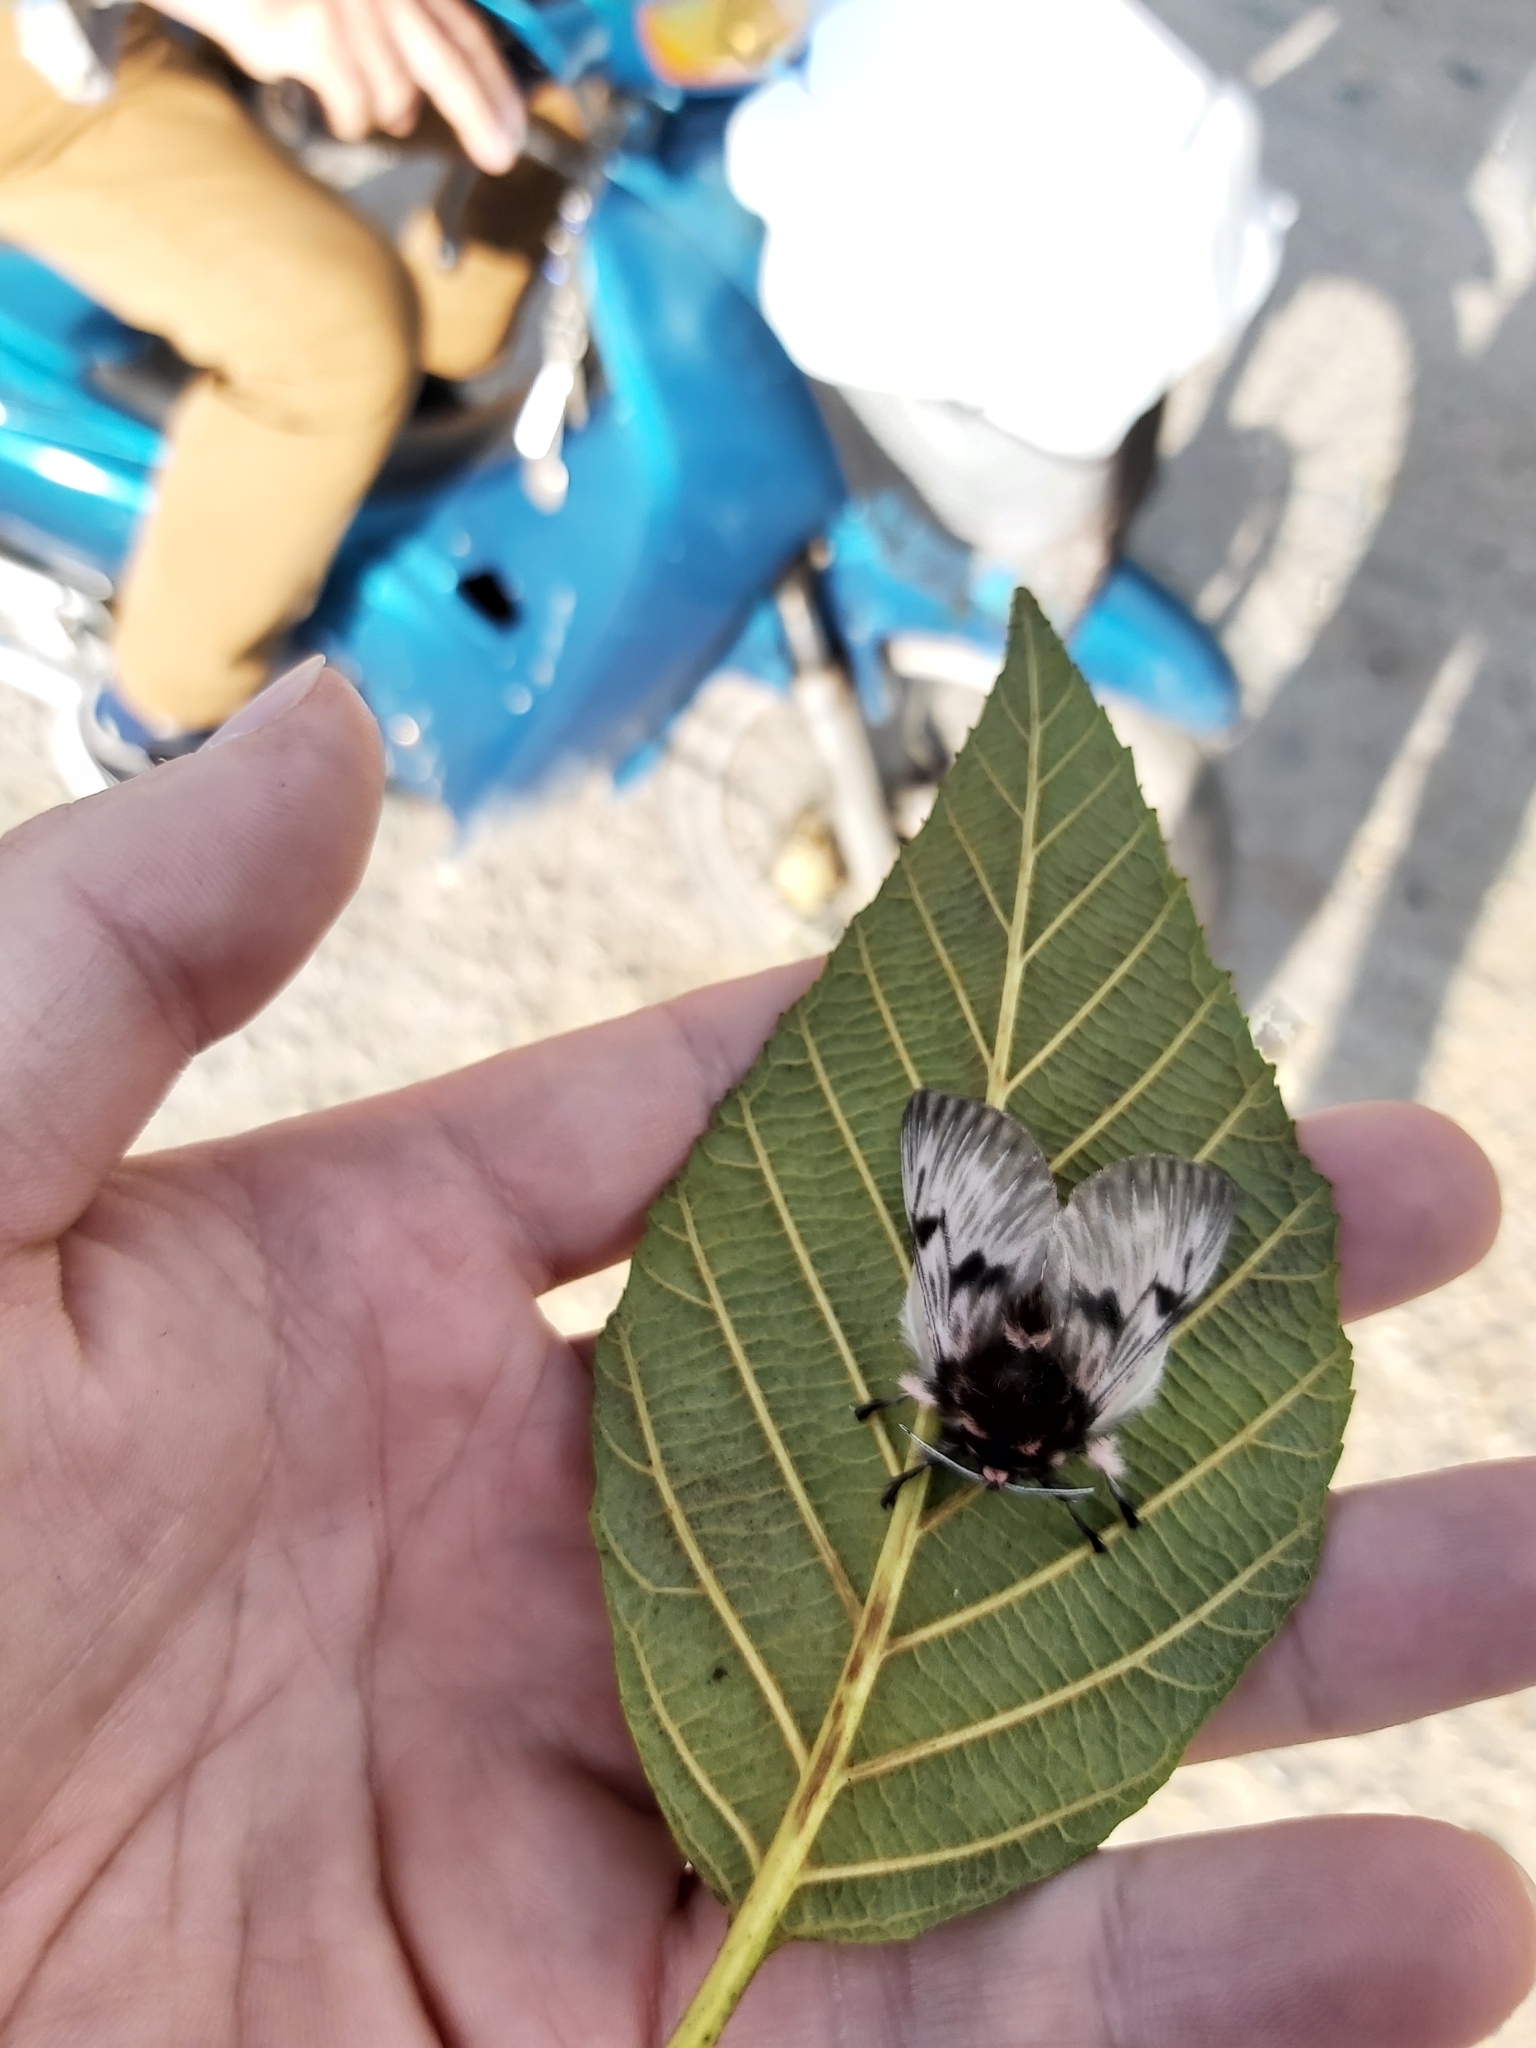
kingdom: Animalia
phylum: Arthropoda
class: Insecta
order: Lepidoptera
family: Megalopygidae
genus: Megalopyge
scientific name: Megalopyge lanata
